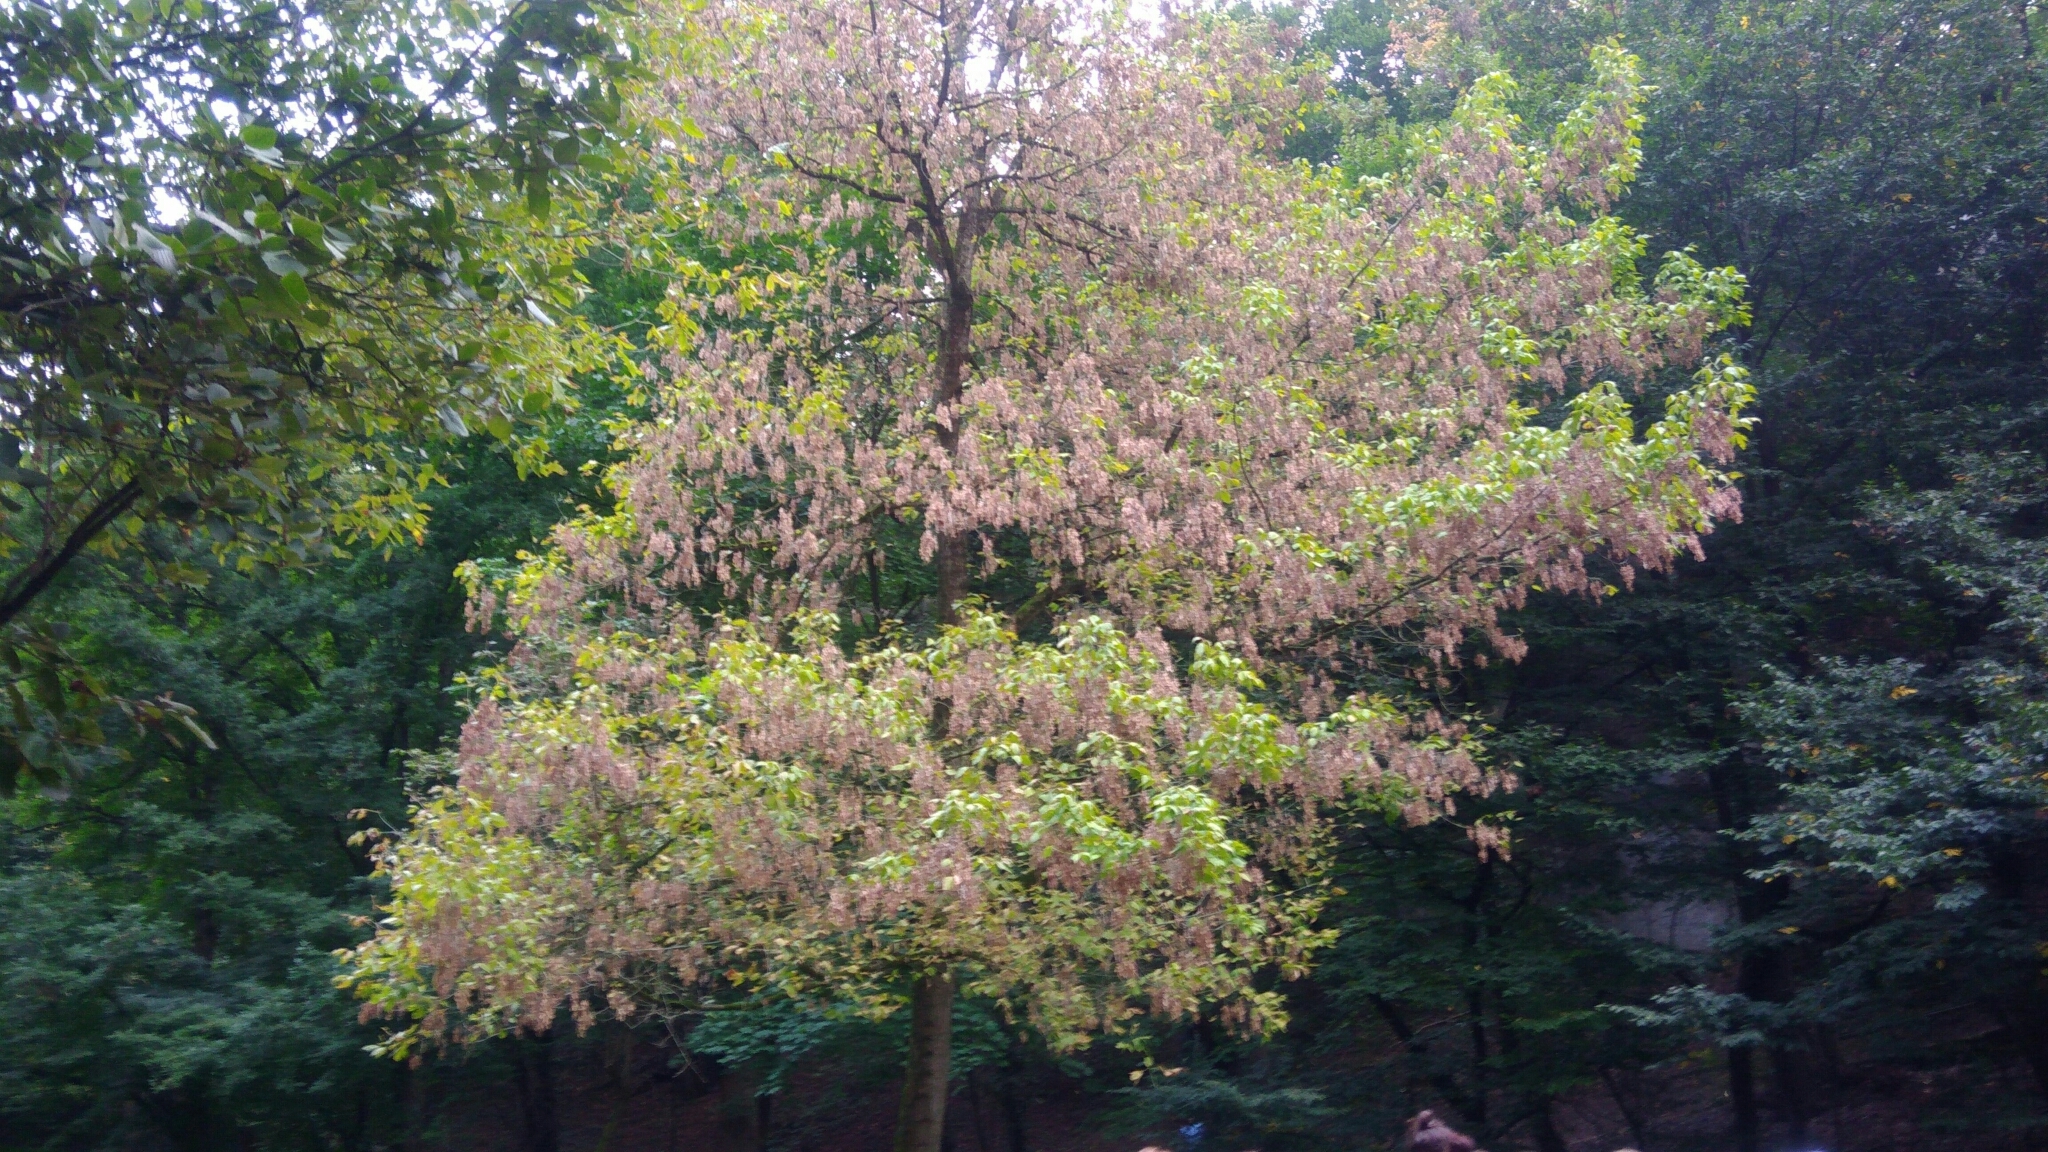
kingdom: Plantae
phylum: Tracheophyta
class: Magnoliopsida
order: Sapindales
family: Sapindaceae
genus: Acer
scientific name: Acer negundo
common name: Ashleaf maple
